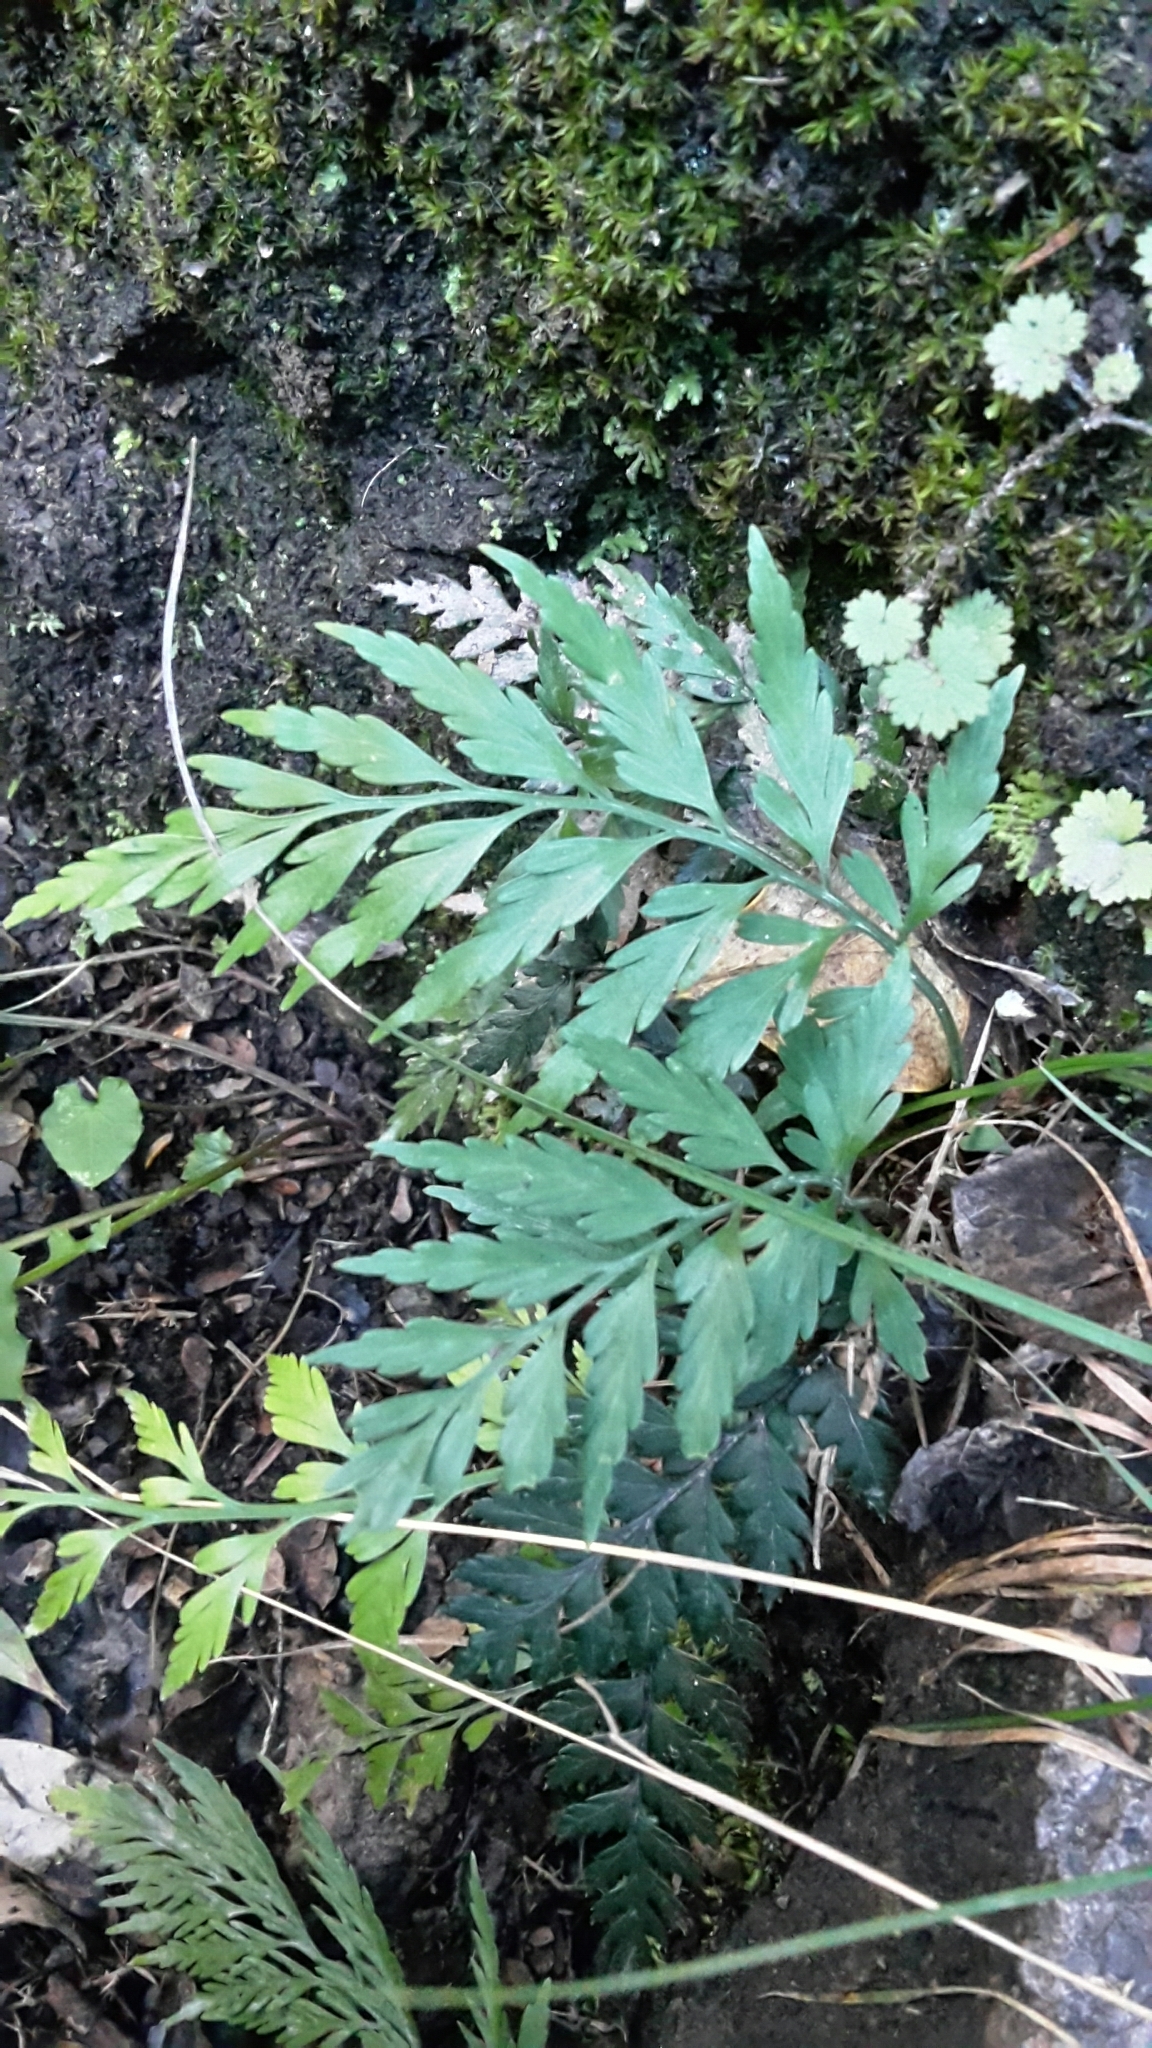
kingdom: Plantae
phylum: Tracheophyta
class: Polypodiopsida
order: Polypodiales
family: Aspleniaceae
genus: Asplenium
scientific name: Asplenium appendiculatum
